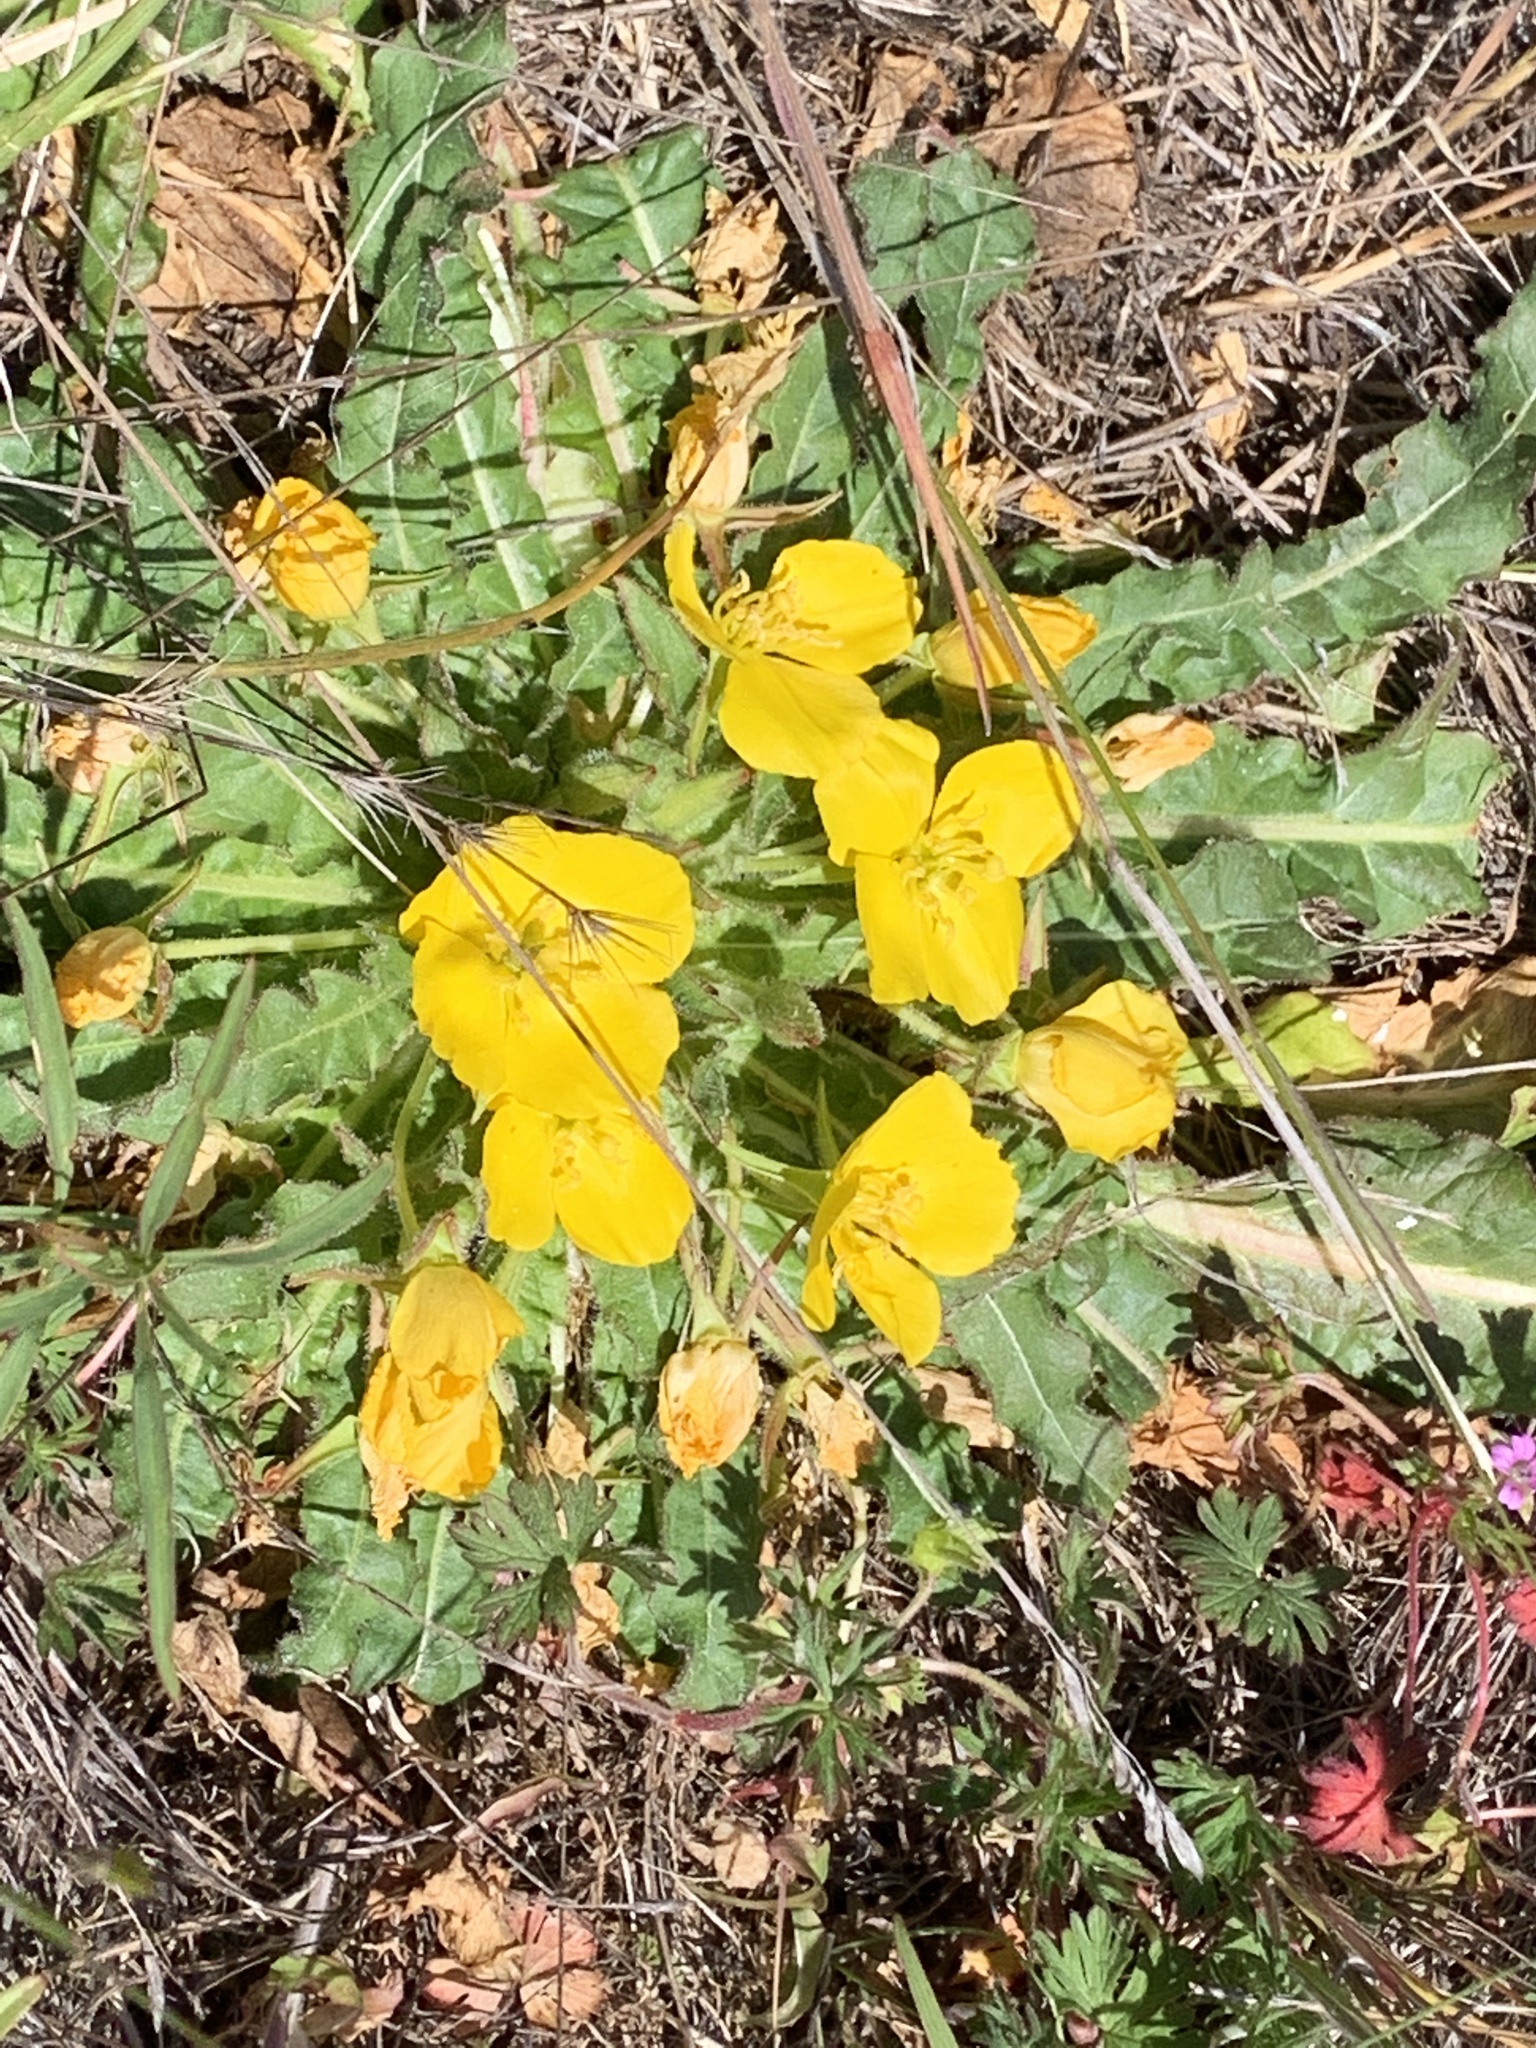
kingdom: Plantae
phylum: Tracheophyta
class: Magnoliopsida
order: Myrtales
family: Onagraceae
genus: Taraxia
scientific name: Taraxia ovata
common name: Goldeneggs
